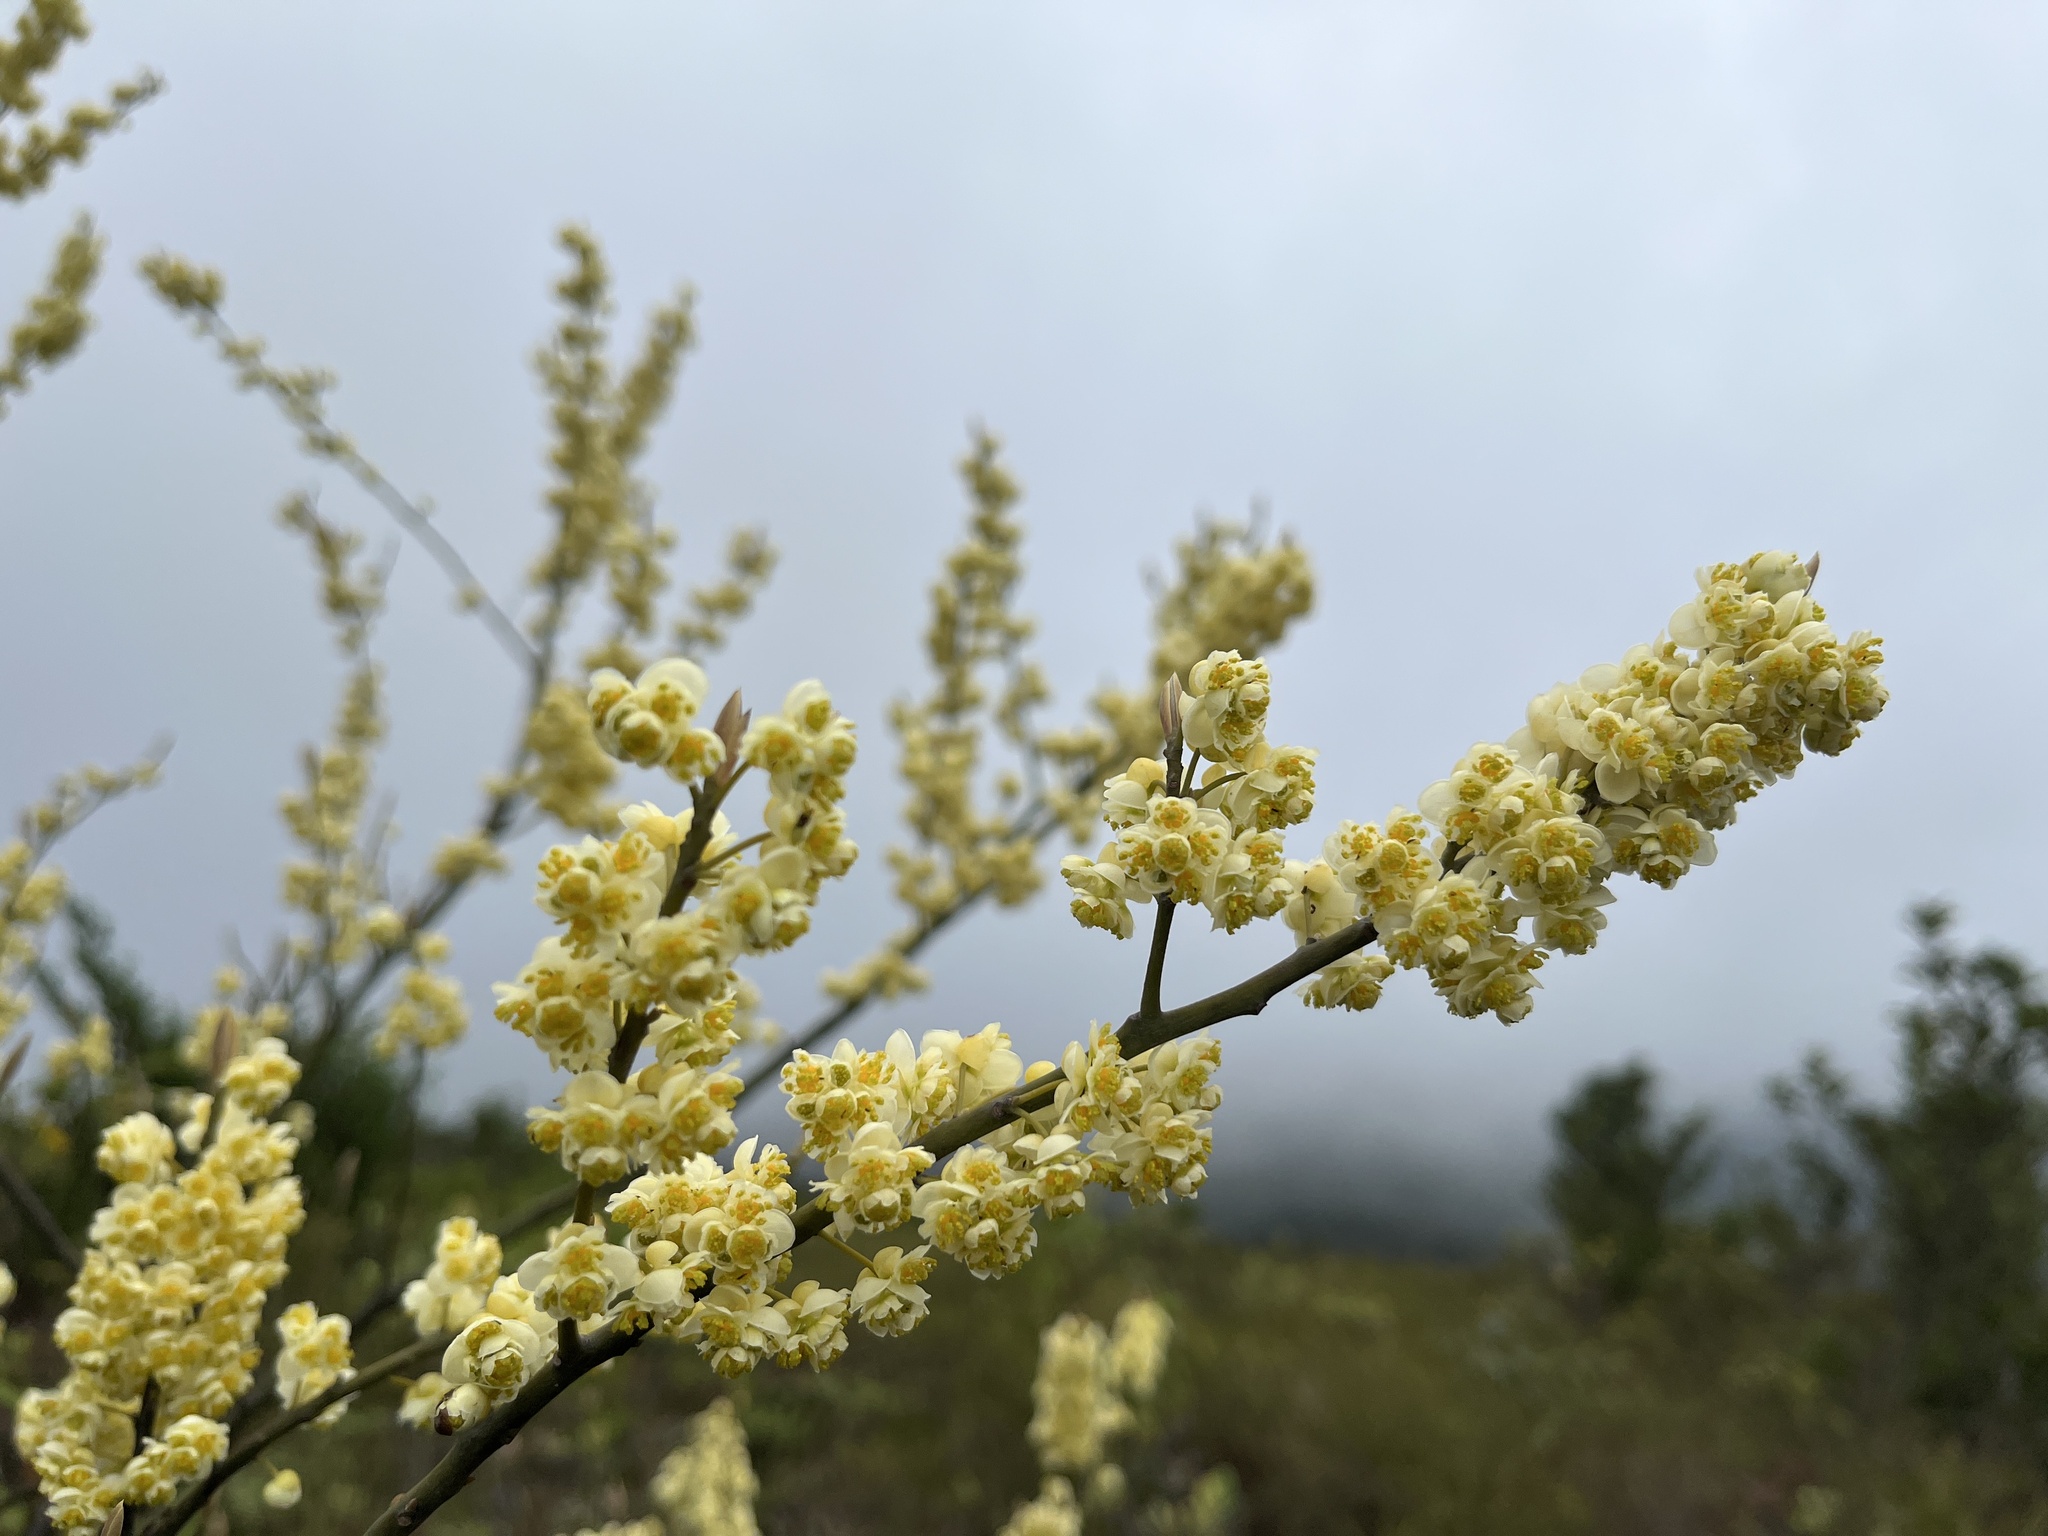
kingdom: Plantae
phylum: Tracheophyta
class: Magnoliopsida
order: Laurales
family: Lauraceae
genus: Litsea
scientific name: Litsea cubeba
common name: Mountain-pepper
